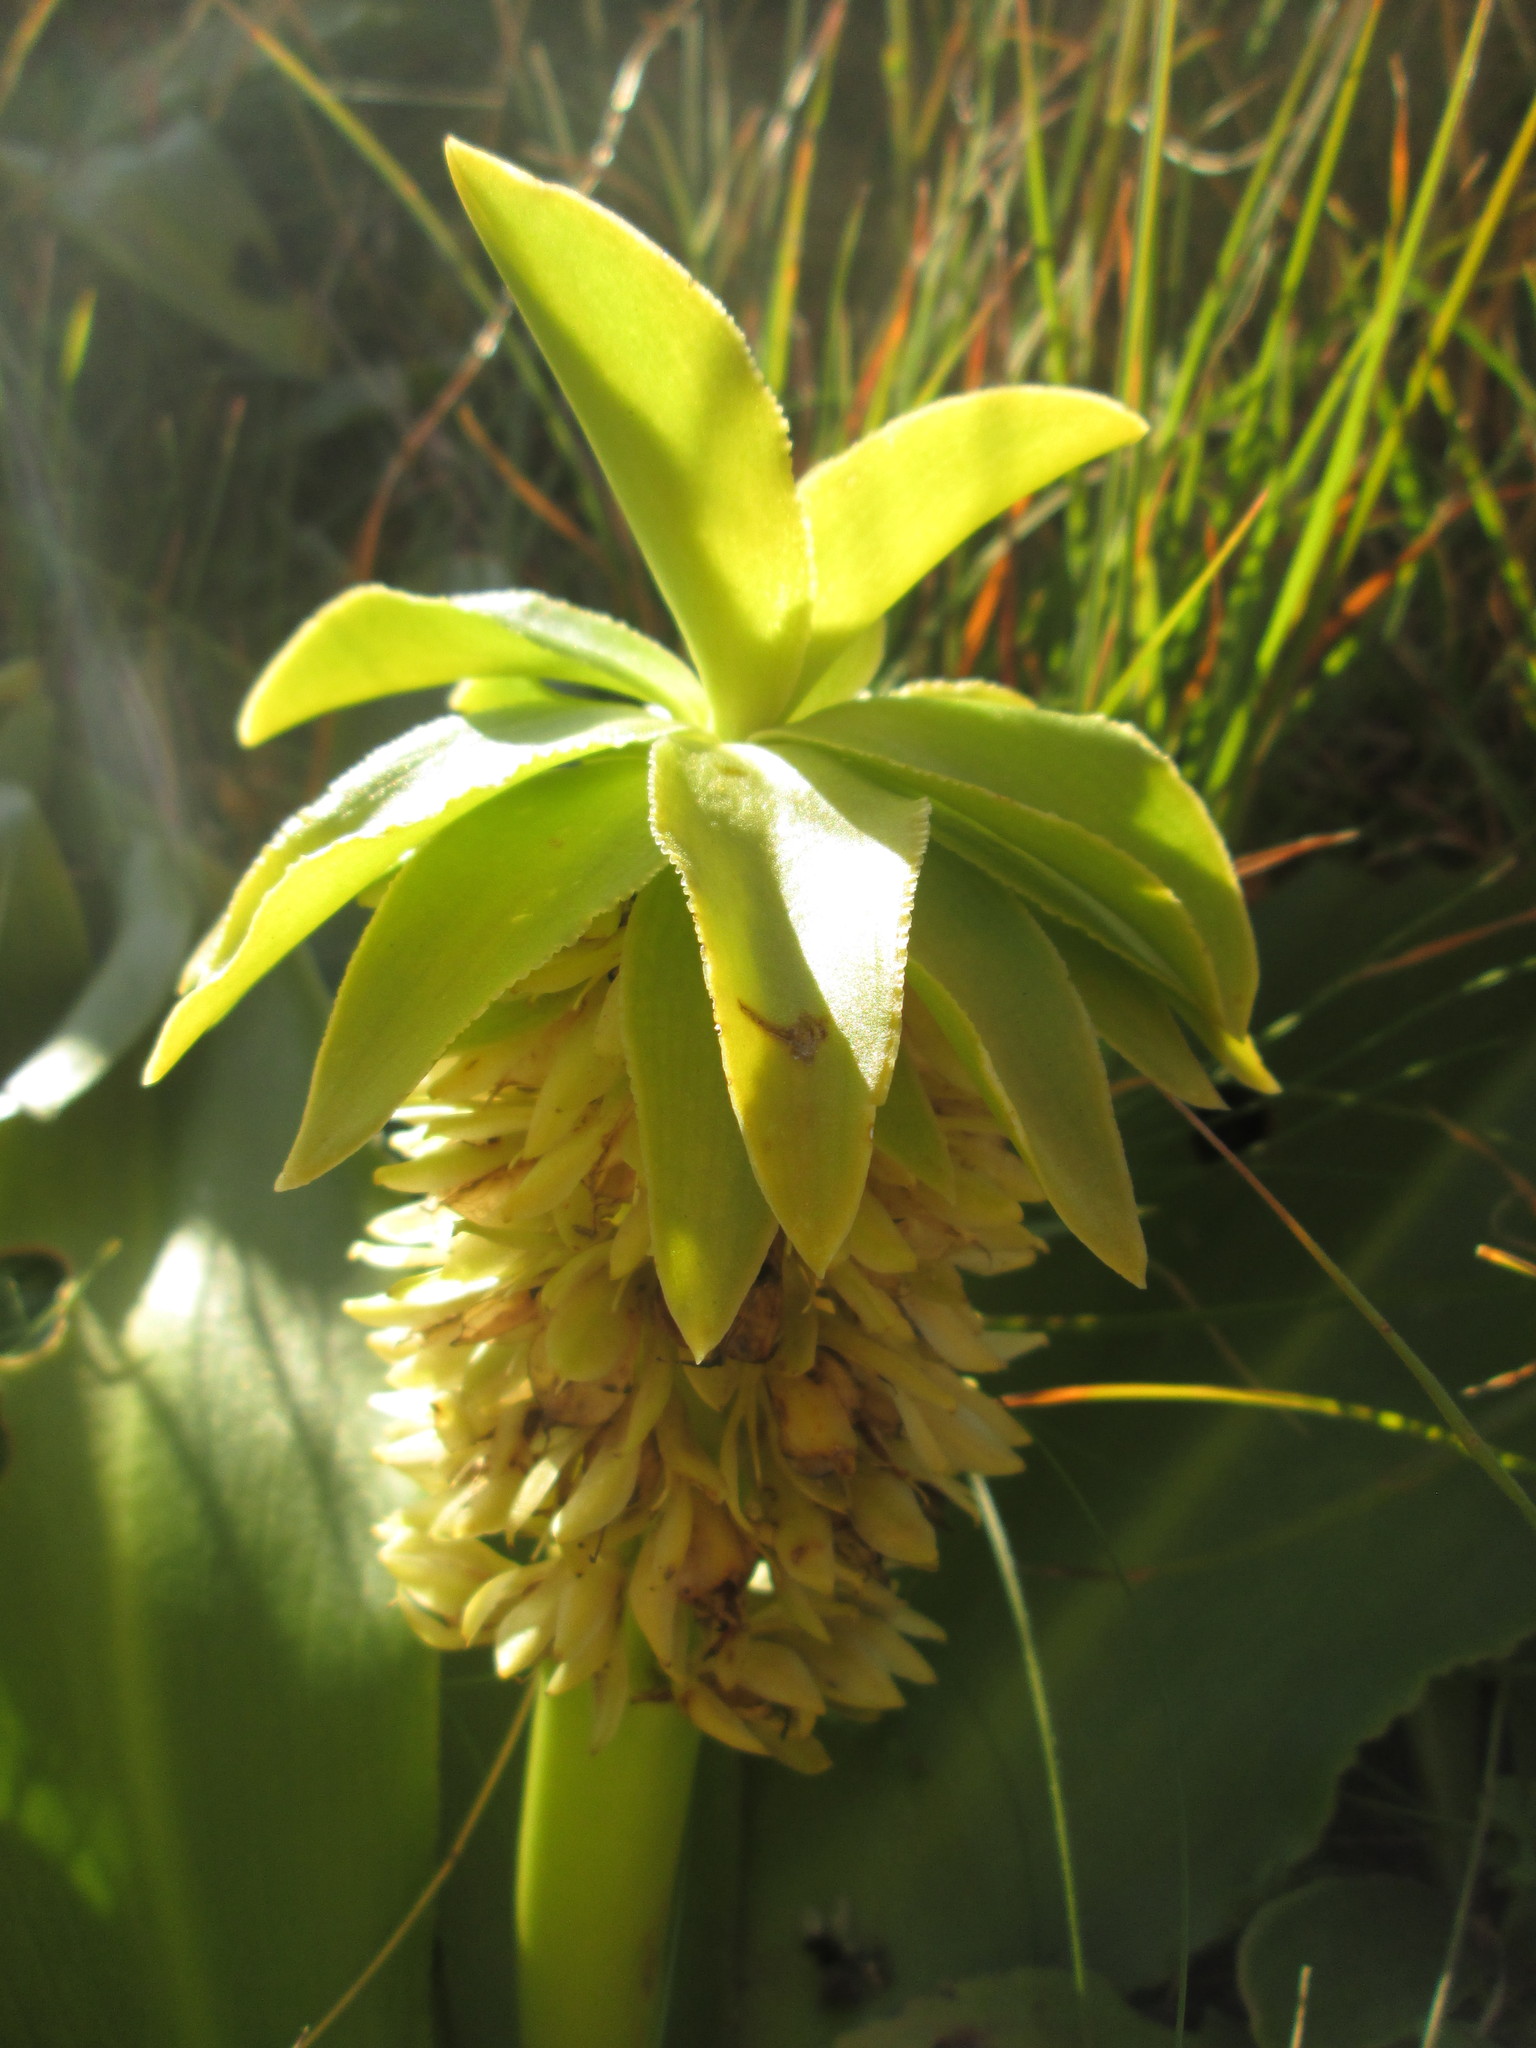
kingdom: Plantae
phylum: Tracheophyta
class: Liliopsida
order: Asparagales
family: Asparagaceae
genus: Eucomis
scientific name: Eucomis autumnalis
